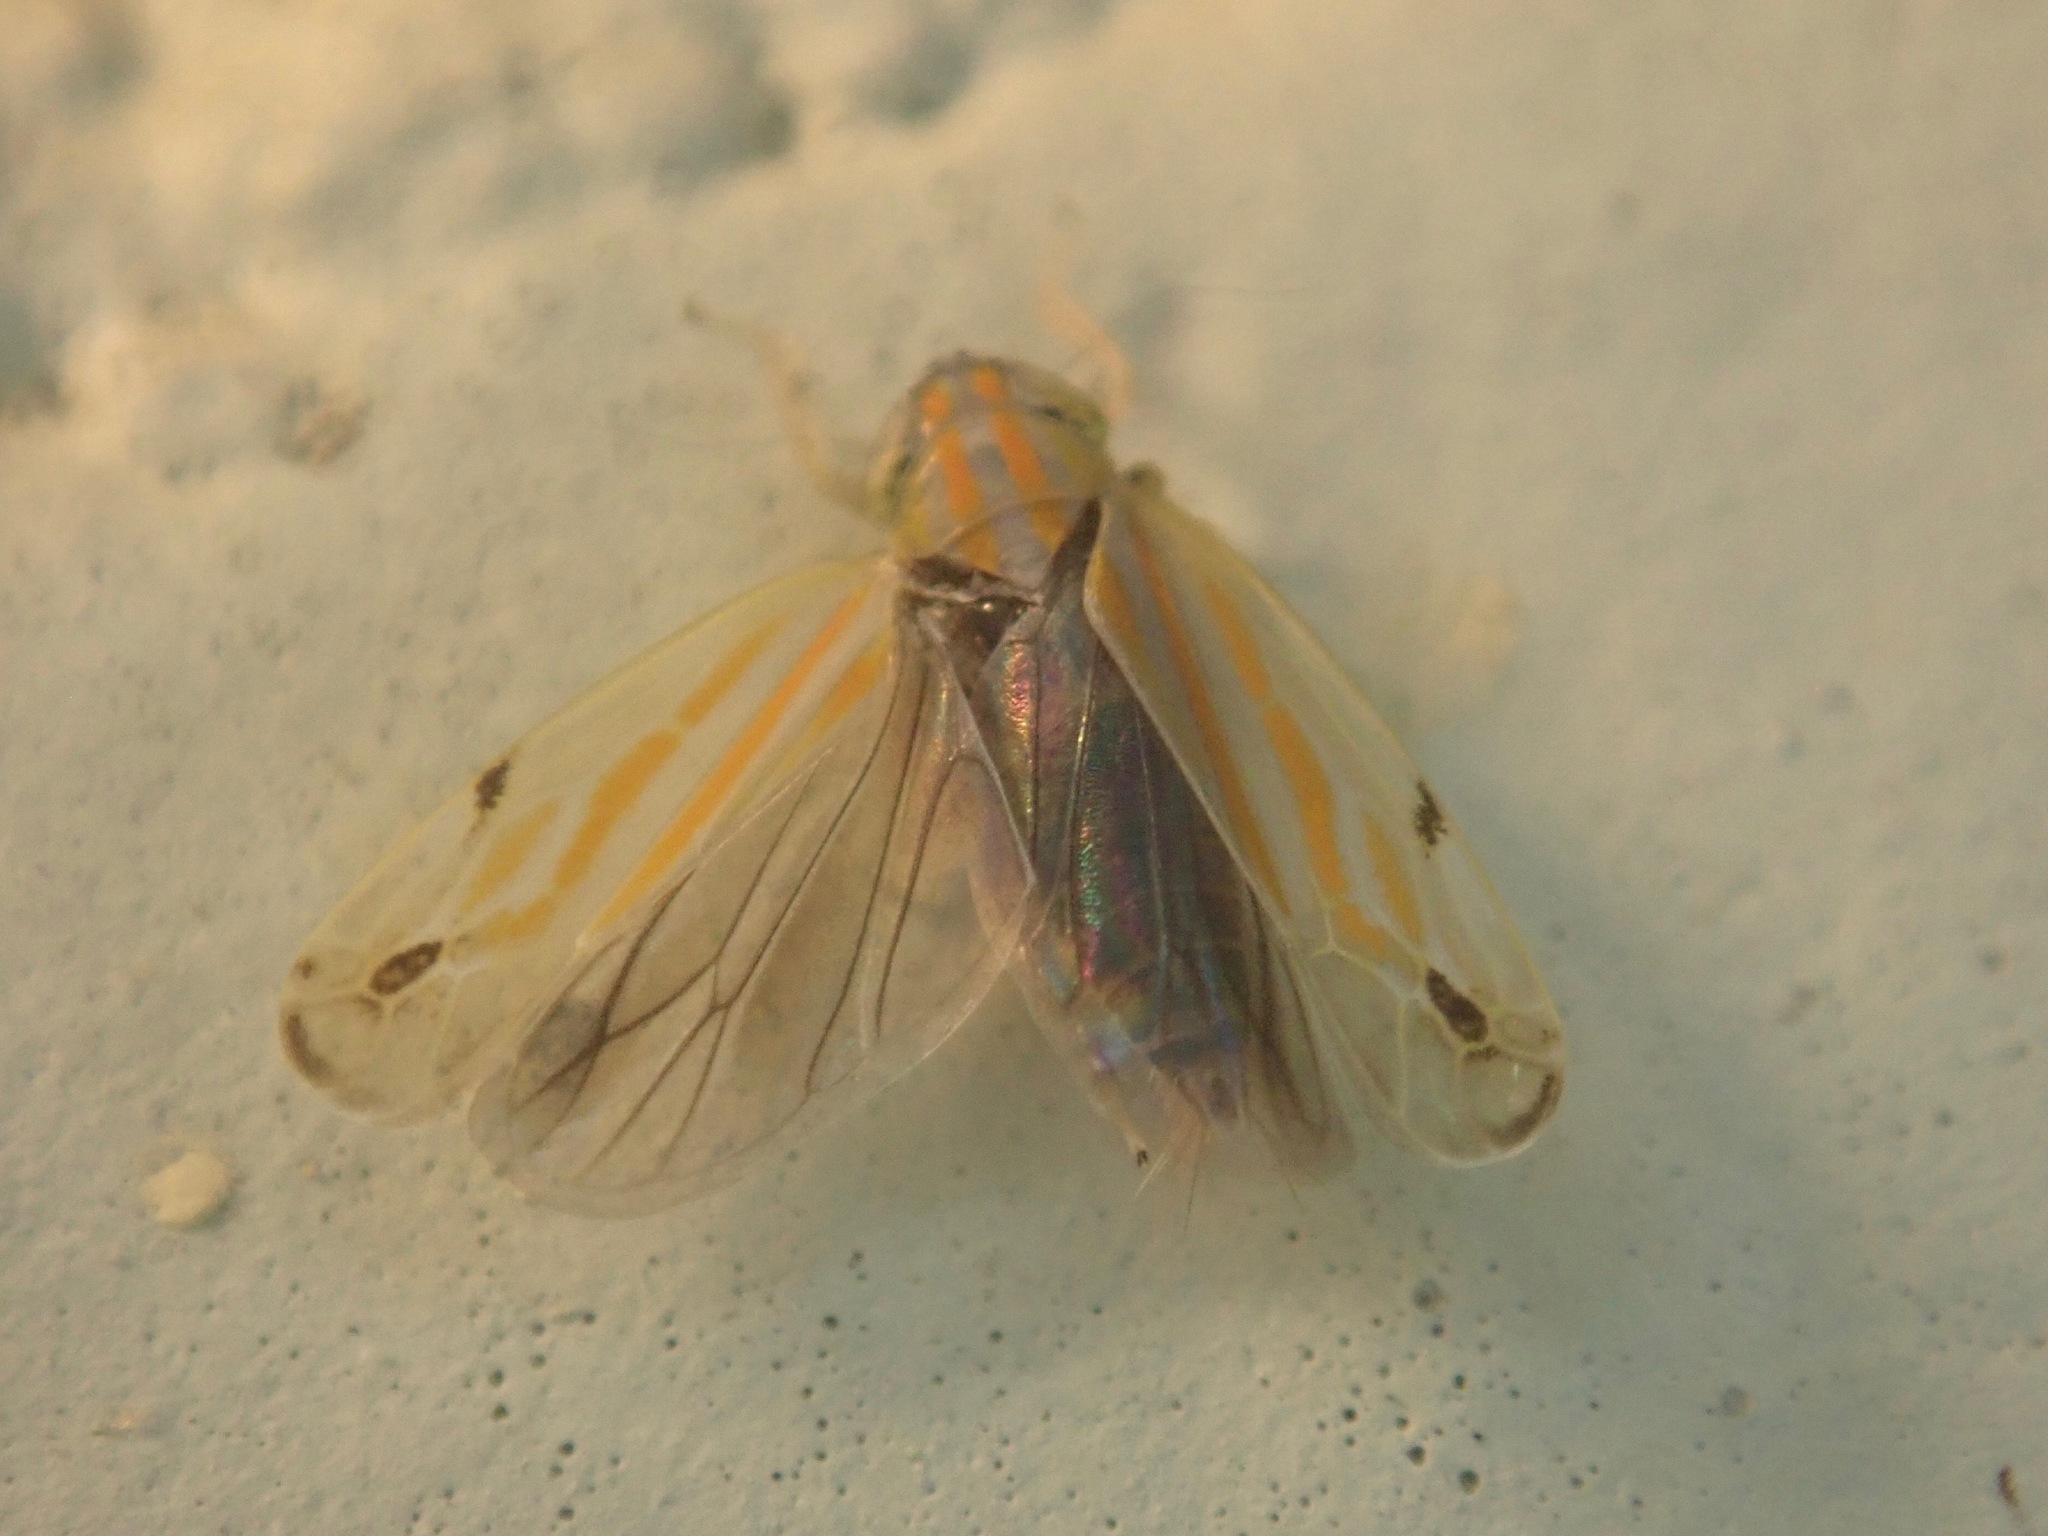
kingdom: Animalia
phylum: Arthropoda
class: Insecta
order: Hemiptera
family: Cicadellidae
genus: Deltanus
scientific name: Deltanus texanus
